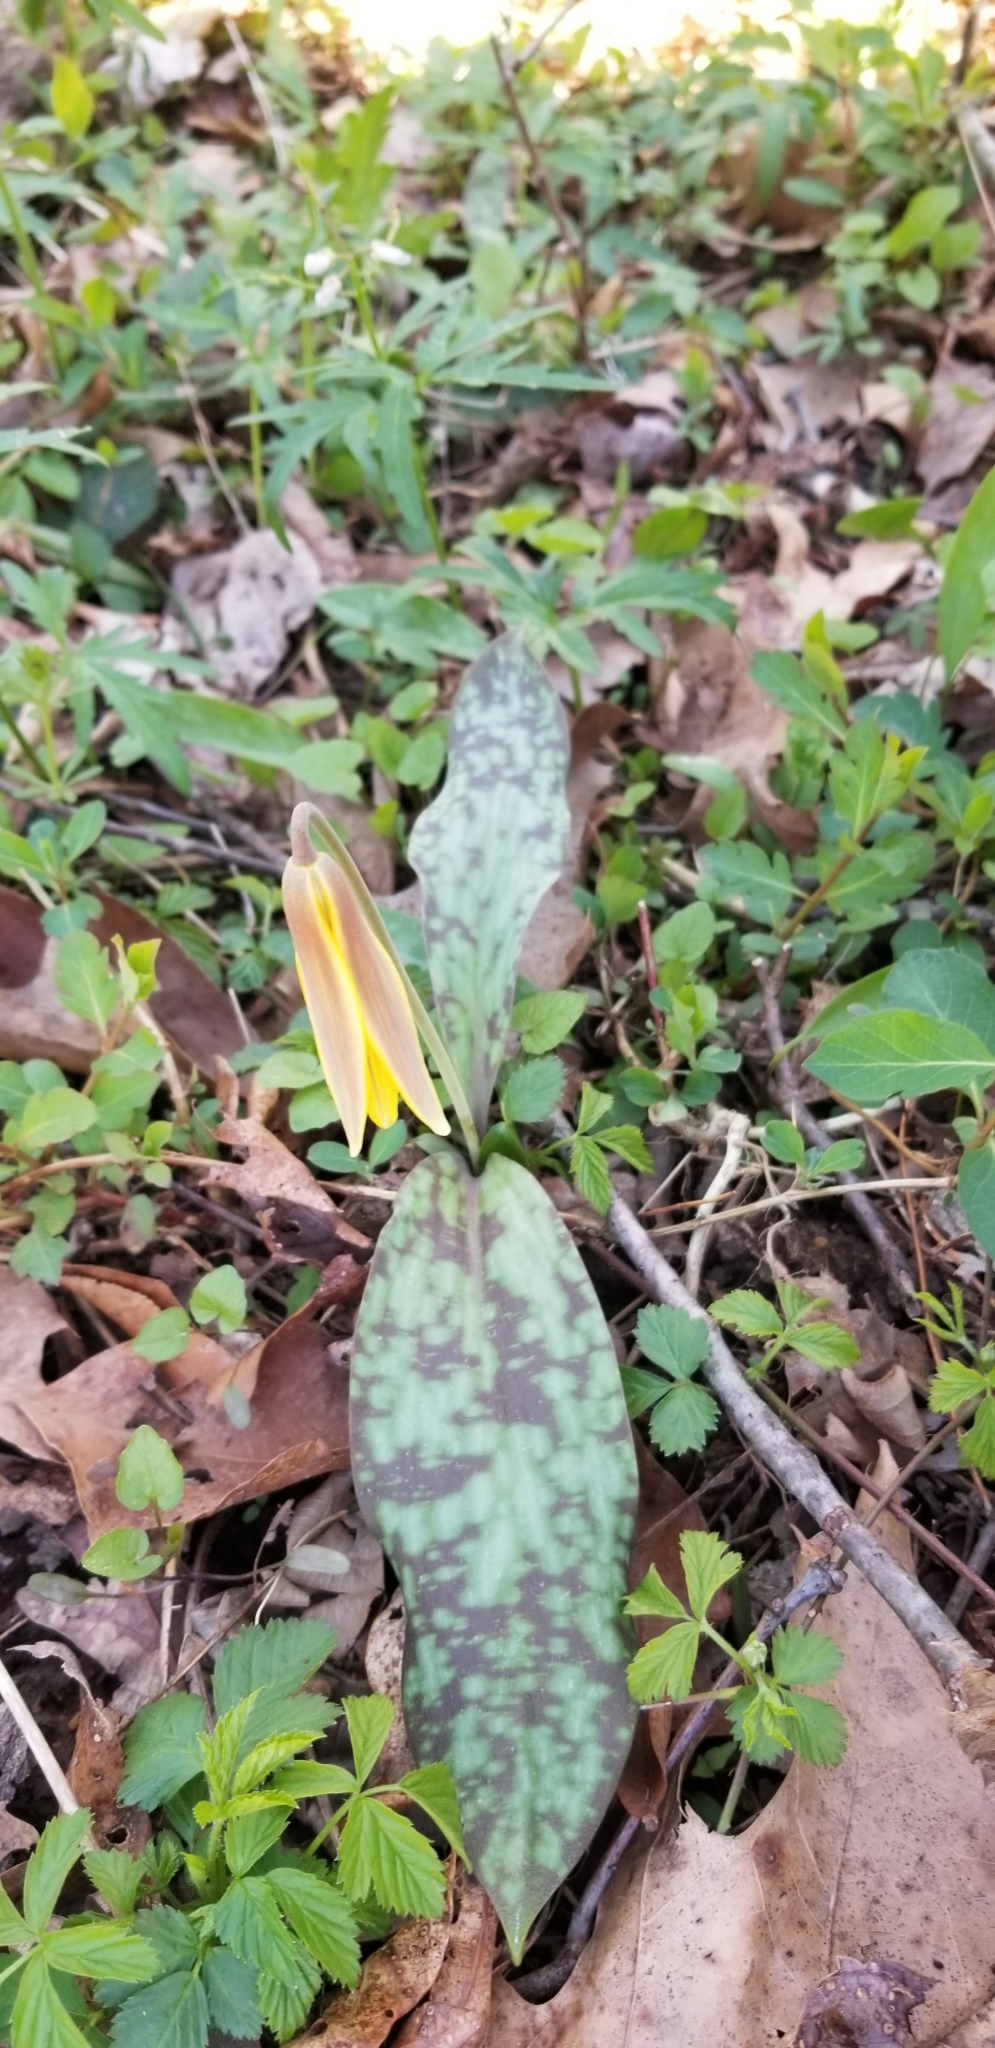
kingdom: Plantae
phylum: Tracheophyta
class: Liliopsida
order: Liliales
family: Liliaceae
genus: Erythronium
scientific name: Erythronium americanum
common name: Yellow adder's-tongue
